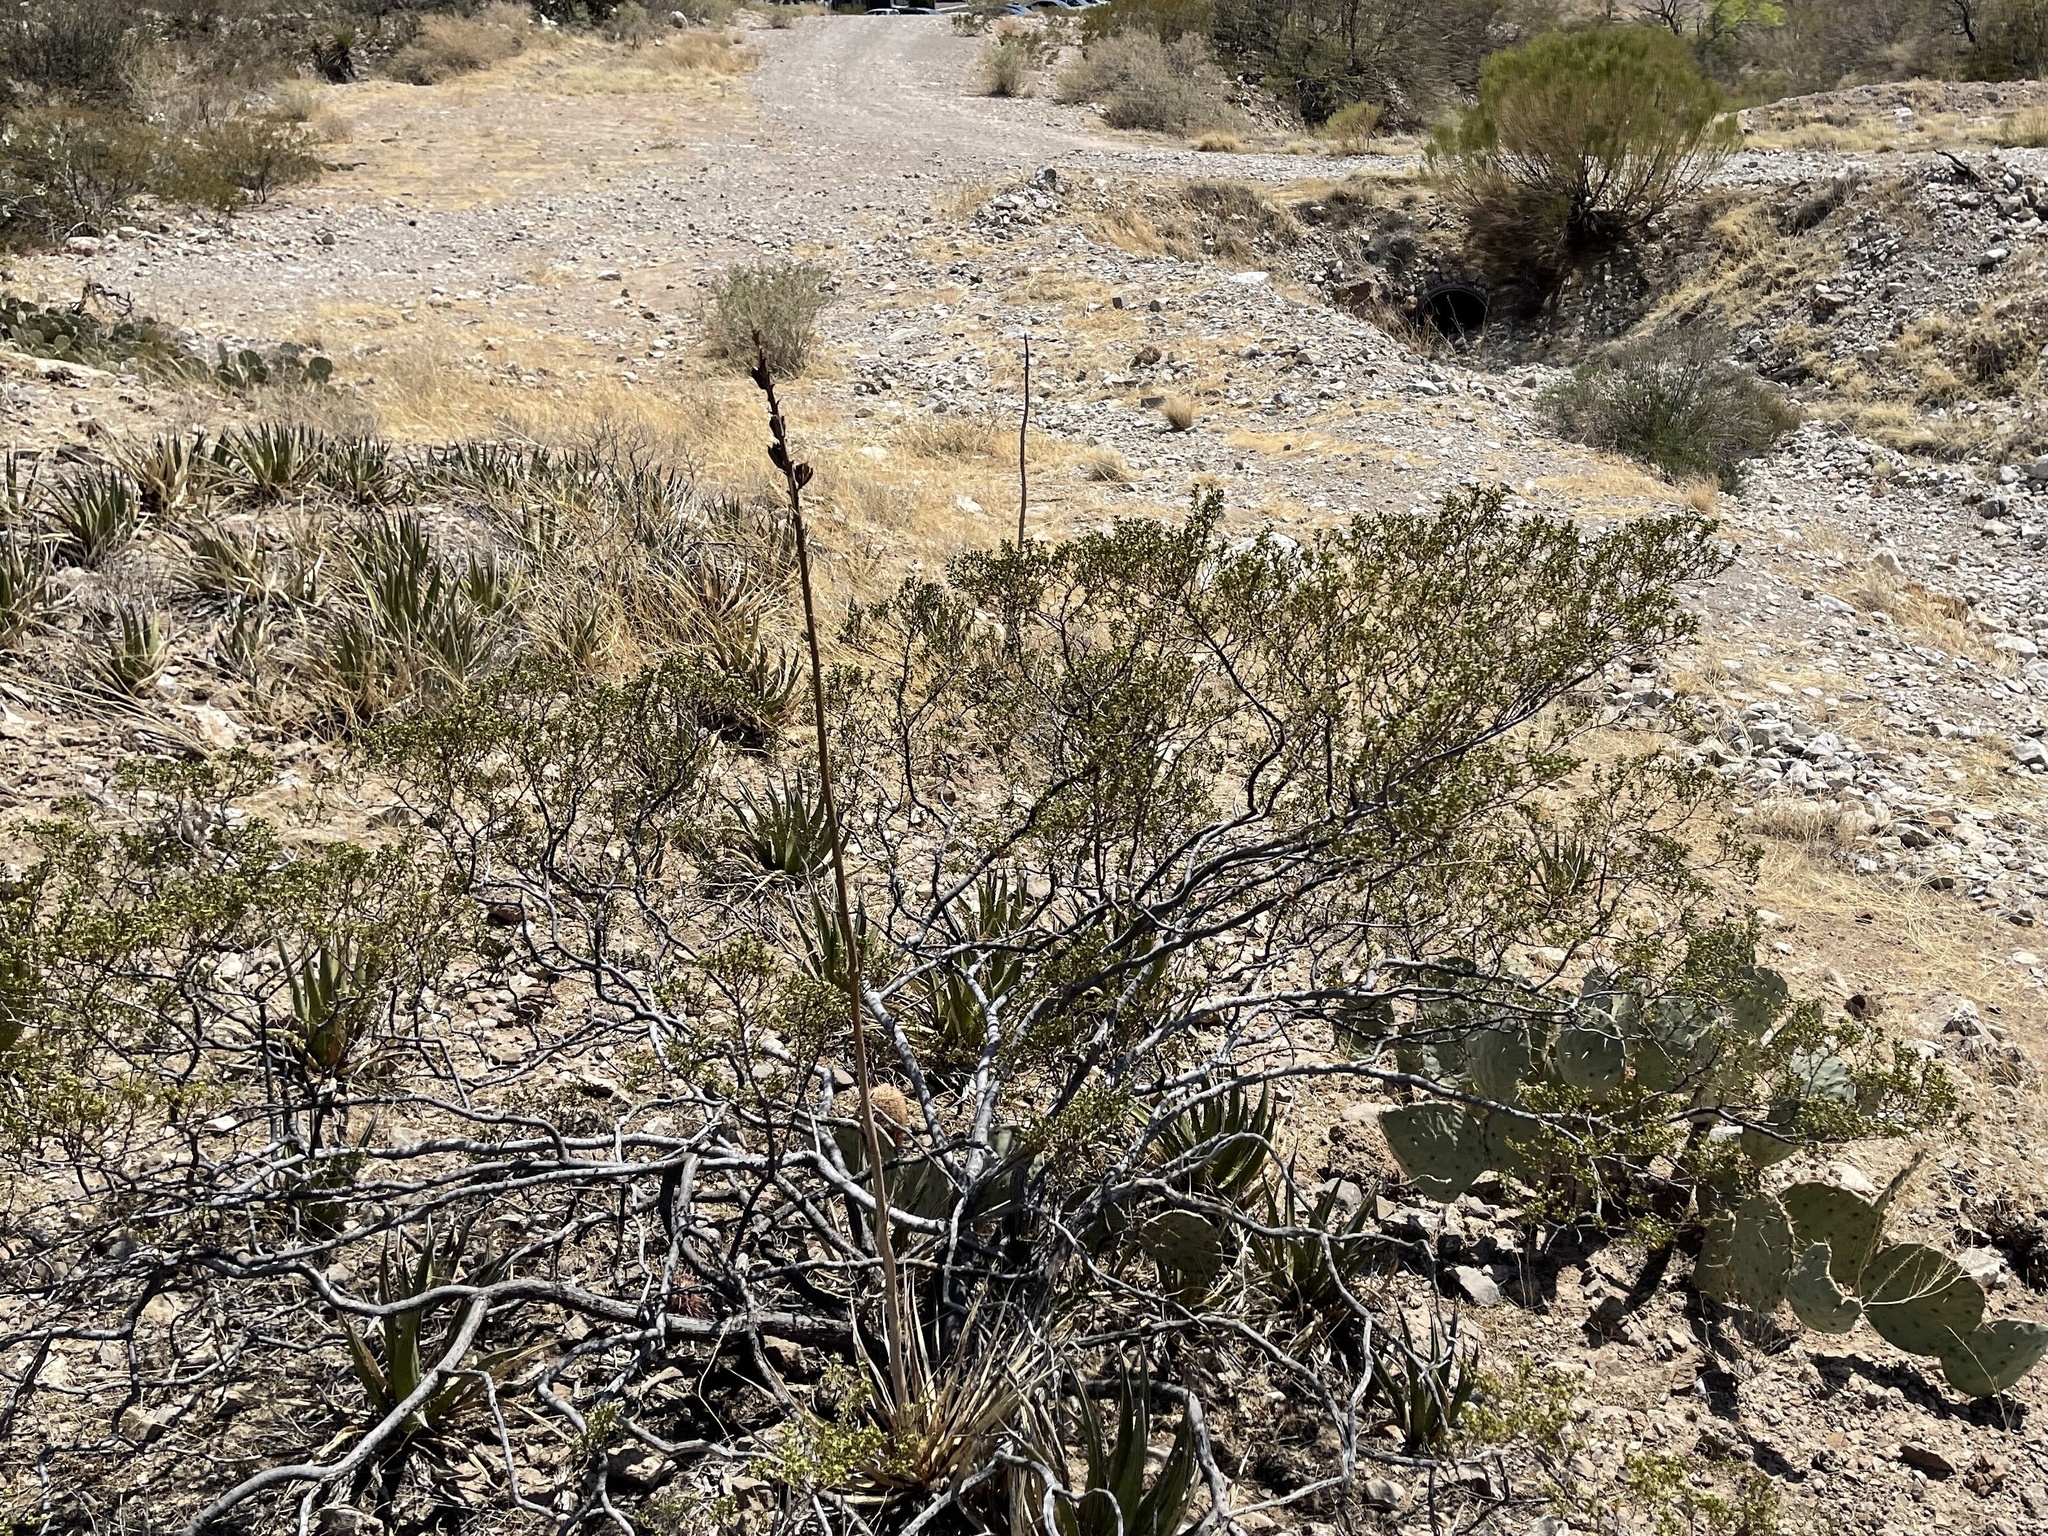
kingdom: Plantae
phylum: Tracheophyta
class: Magnoliopsida
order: Zygophyllales
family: Zygophyllaceae
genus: Larrea
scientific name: Larrea tridentata
